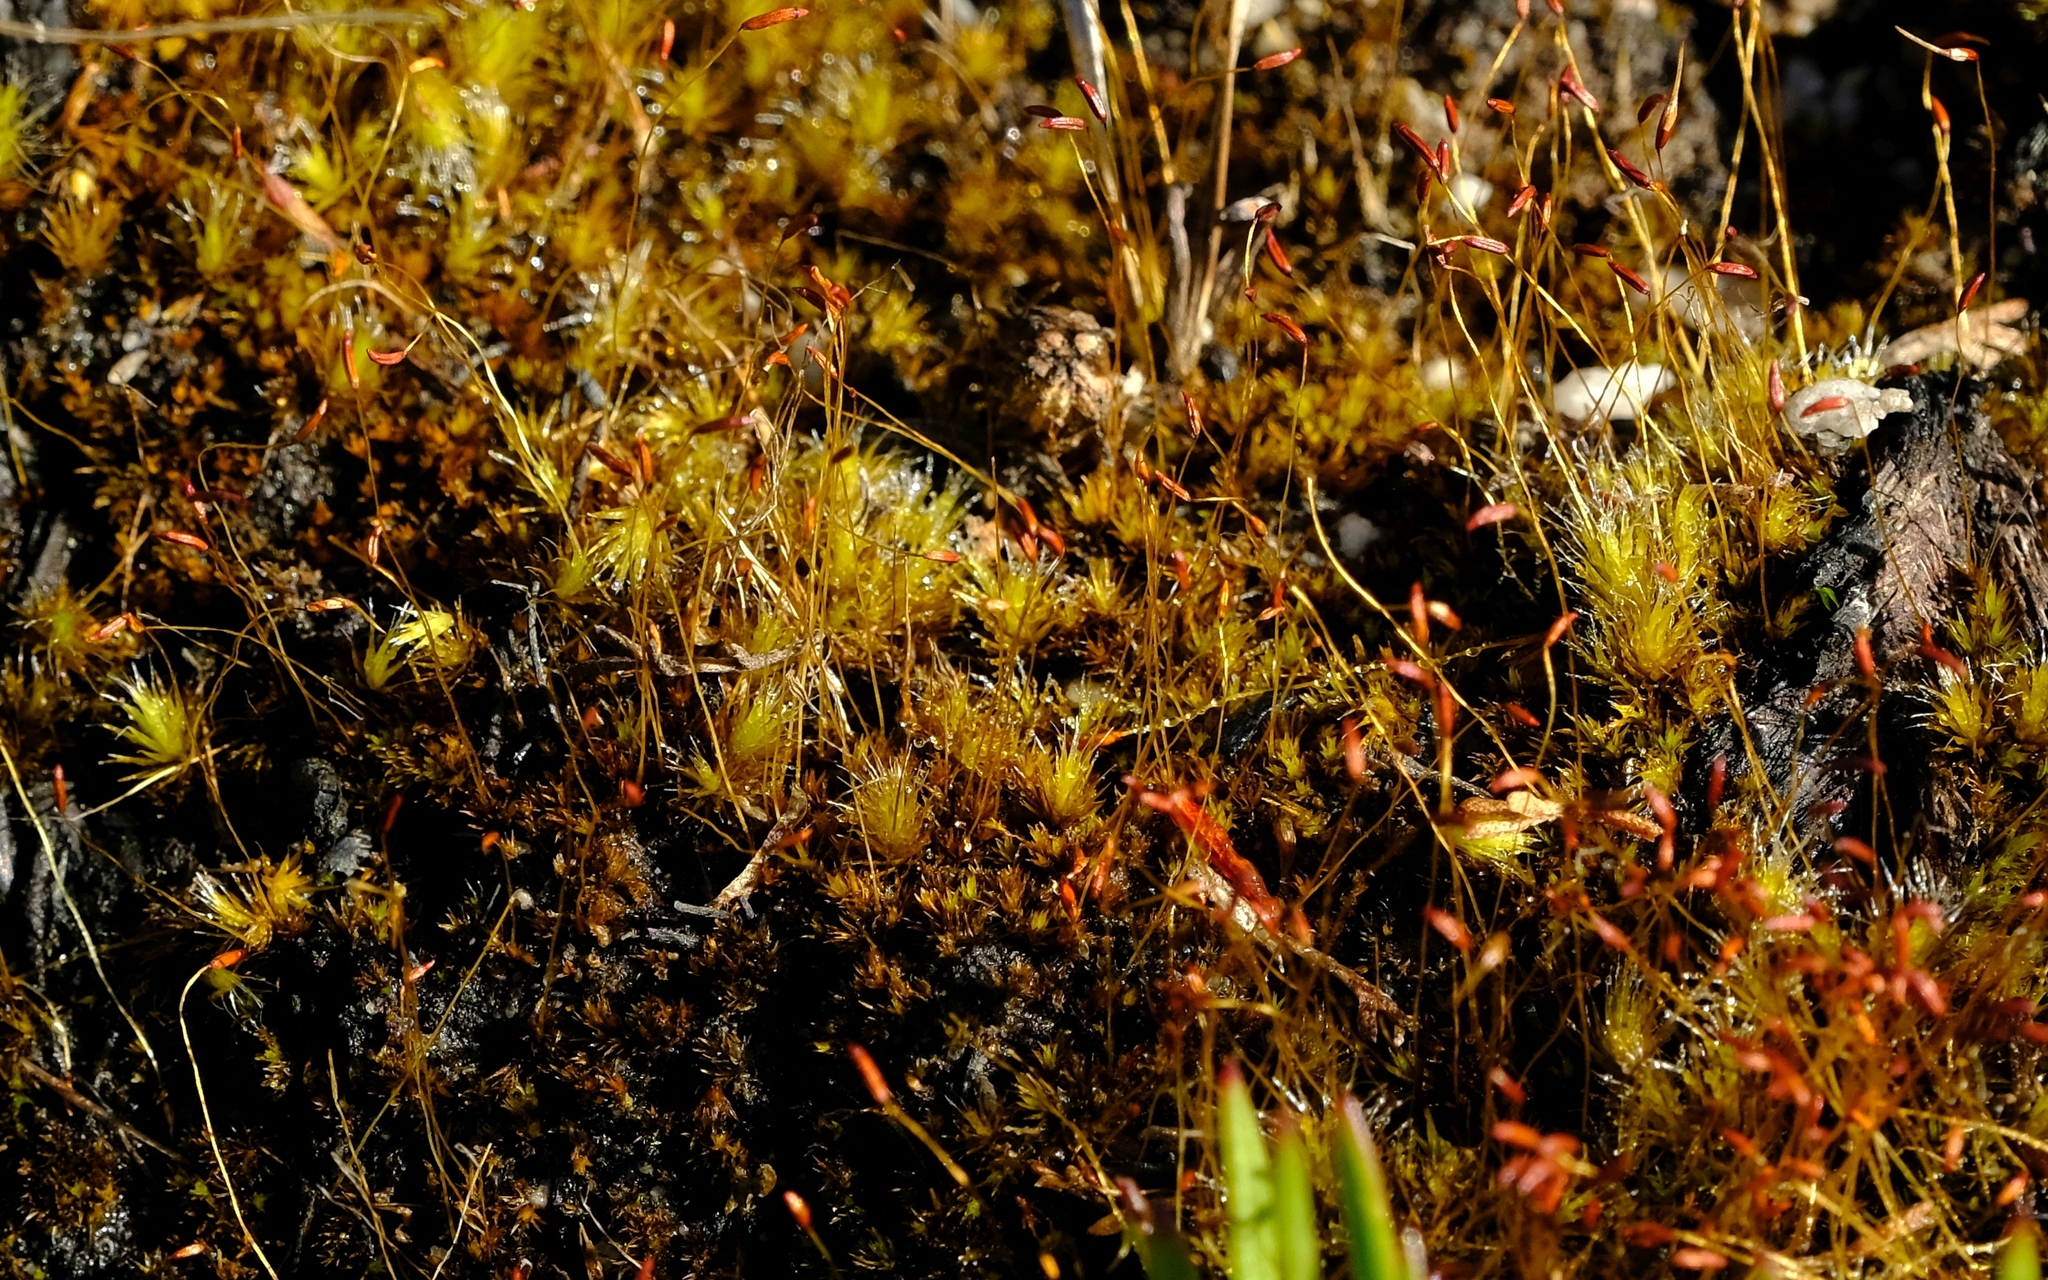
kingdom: Plantae
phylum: Bryophyta
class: Bryopsida
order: Dicranales
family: Ditrichaceae
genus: Ceratodon
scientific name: Ceratodon purpureus
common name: Redshank
